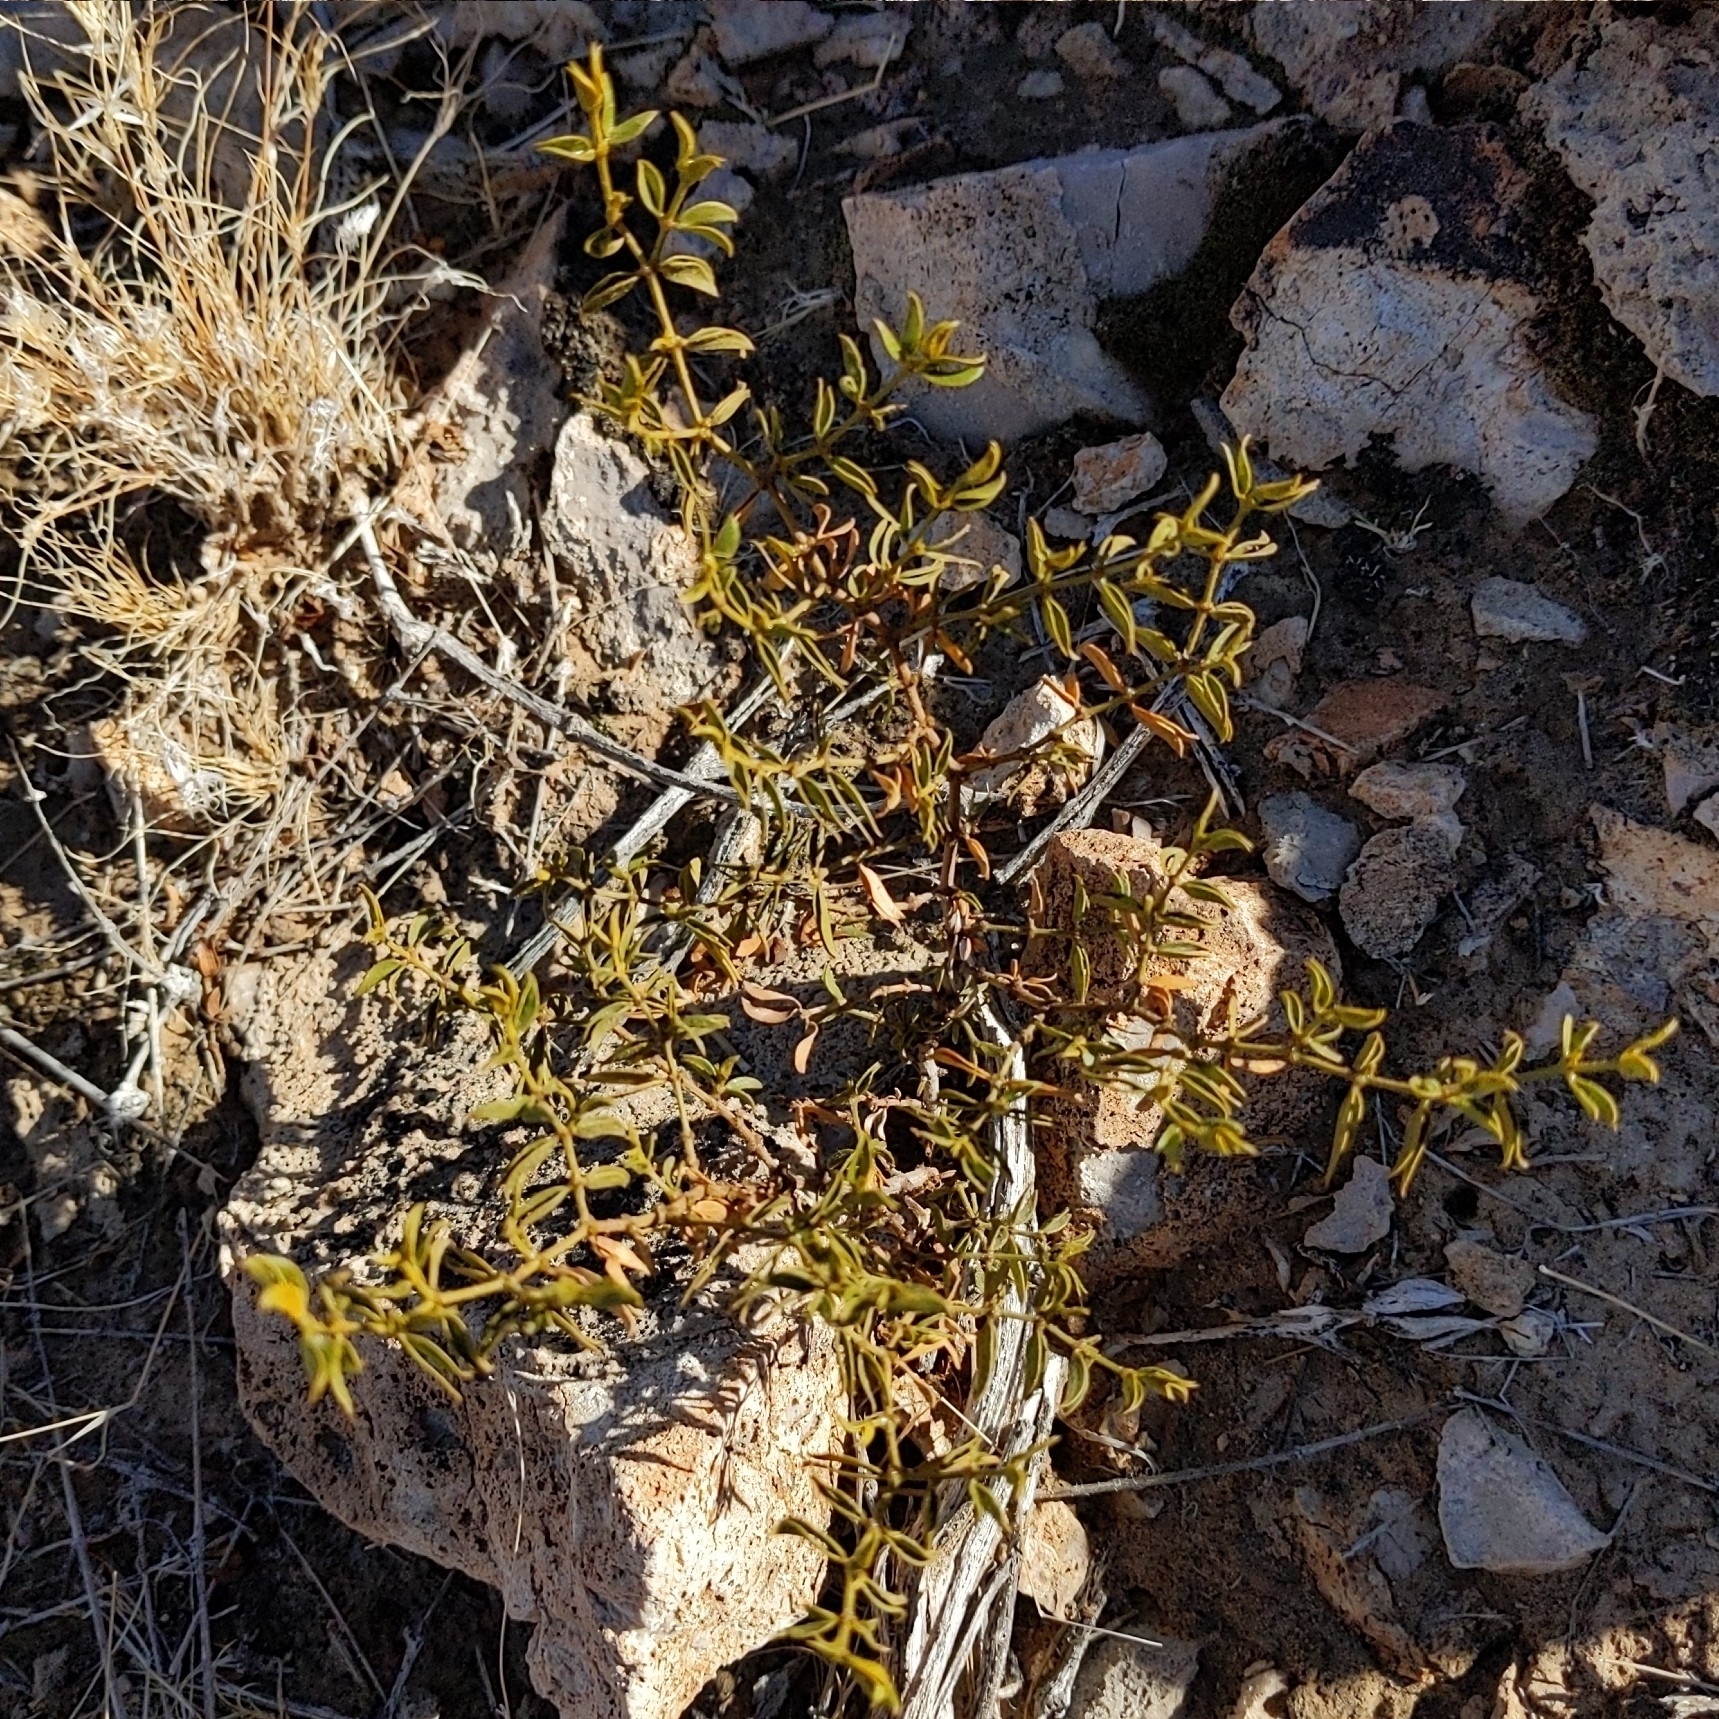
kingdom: Plantae
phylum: Tracheophyta
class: Magnoliopsida
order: Zygophyllales
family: Zygophyllaceae
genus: Larrea
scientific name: Larrea tridentata
